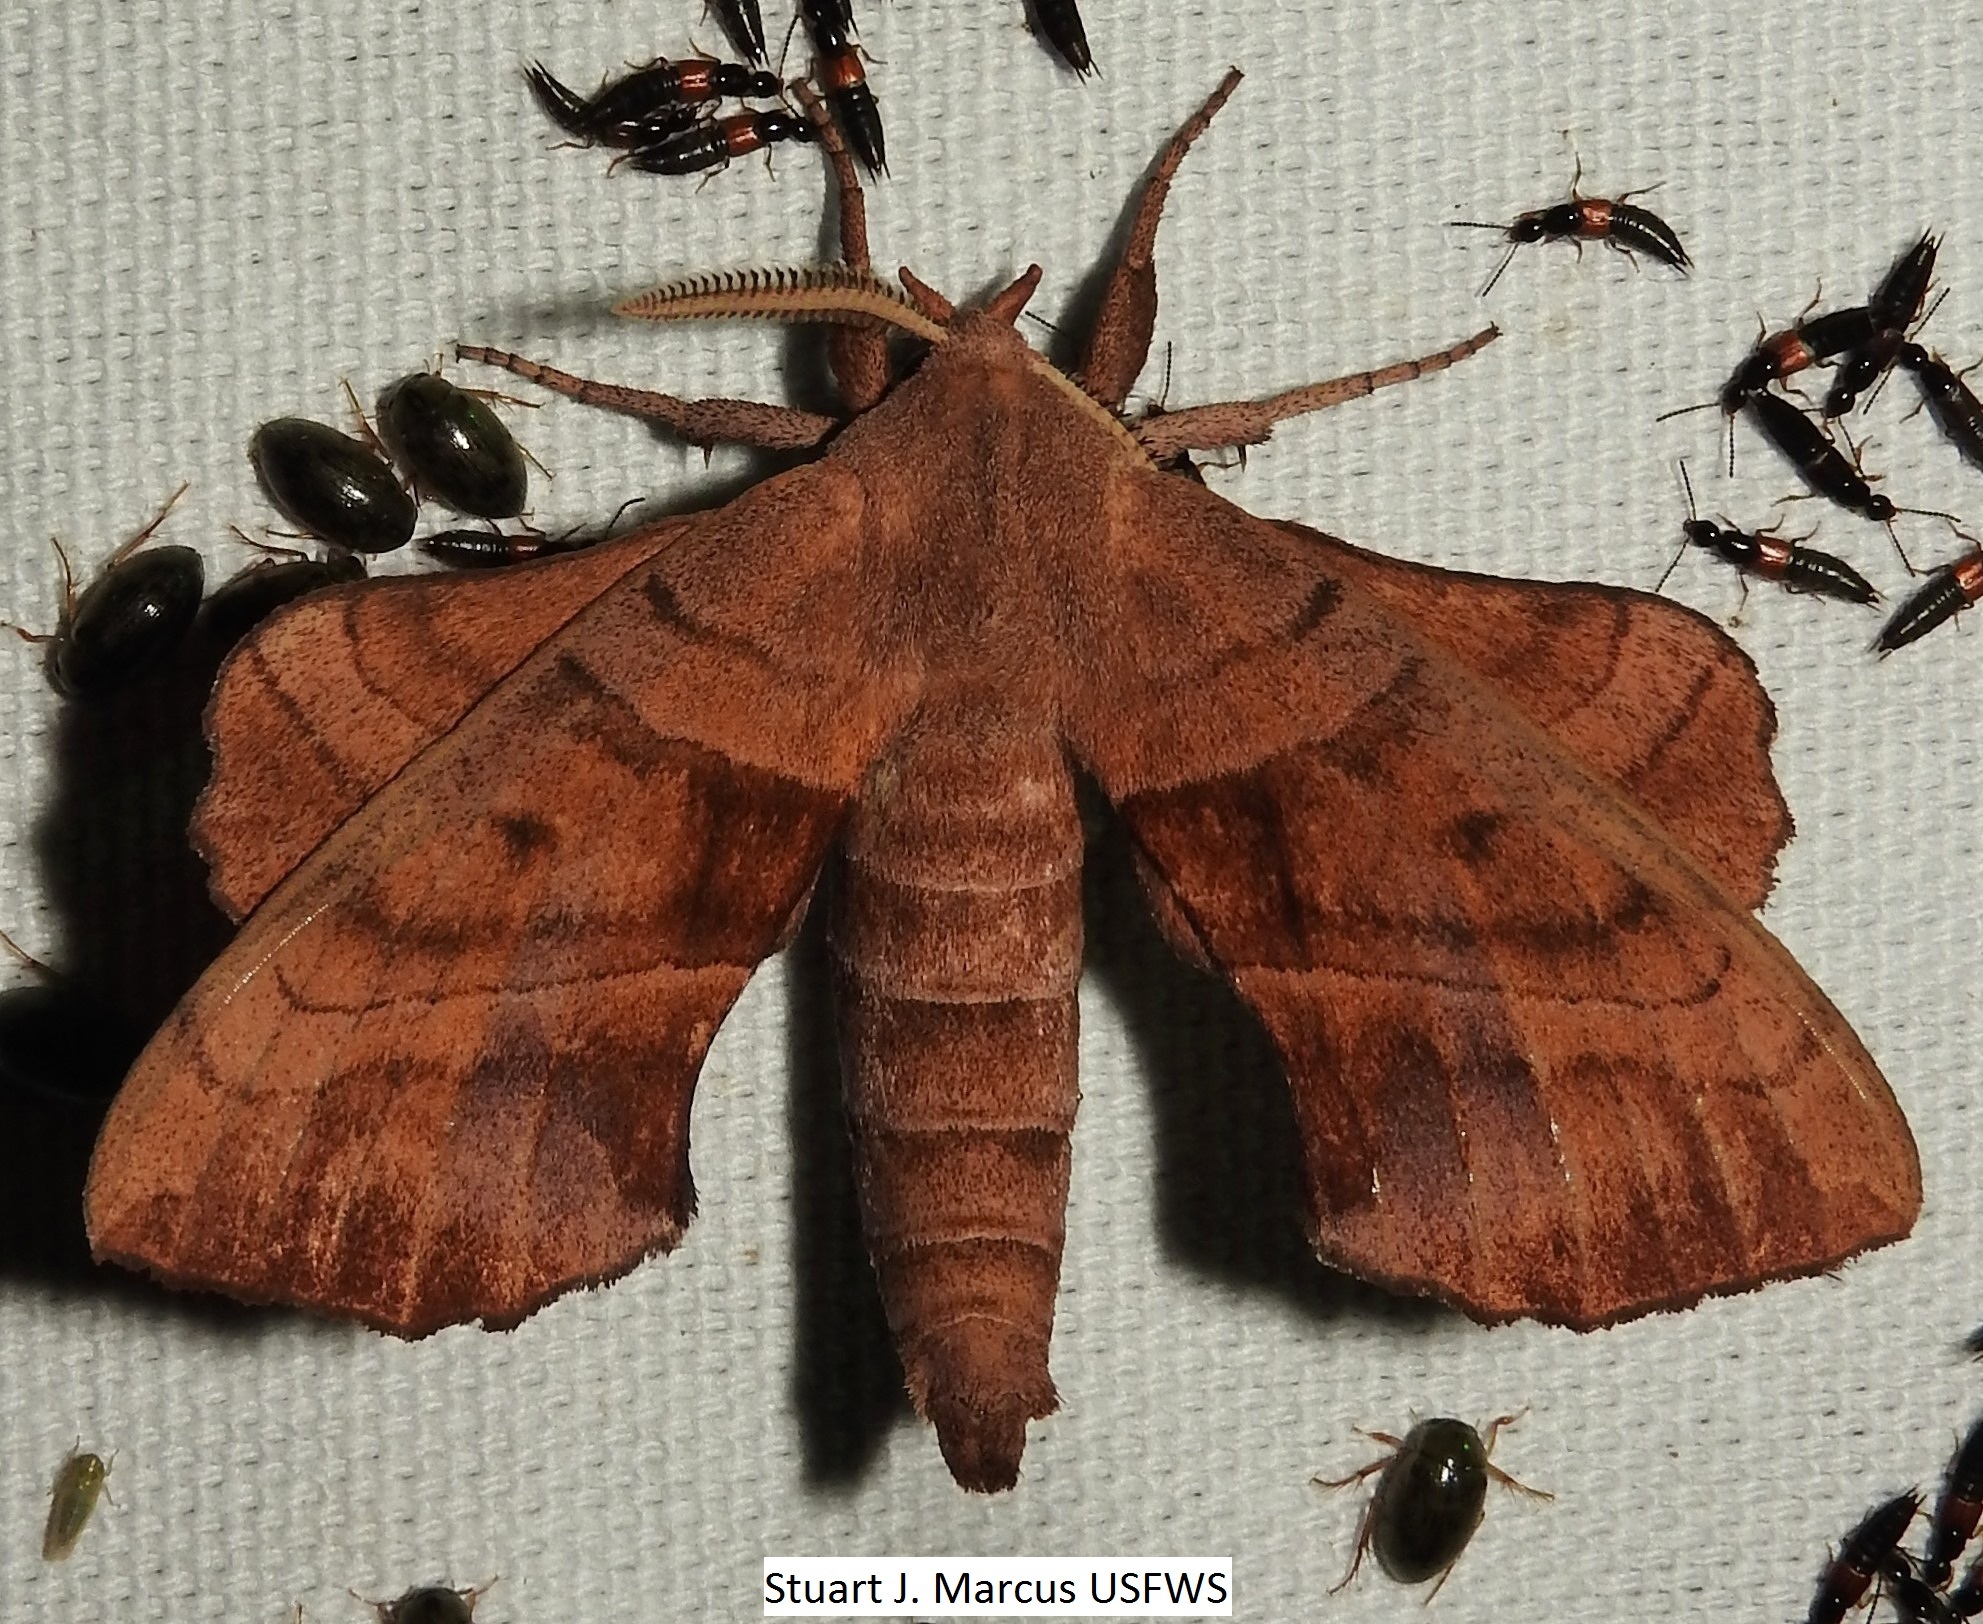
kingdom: Animalia
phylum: Arthropoda
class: Insecta
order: Lepidoptera
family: Sphingidae
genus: Amorpha
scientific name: Amorpha juglandis
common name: Walnut sphinx
